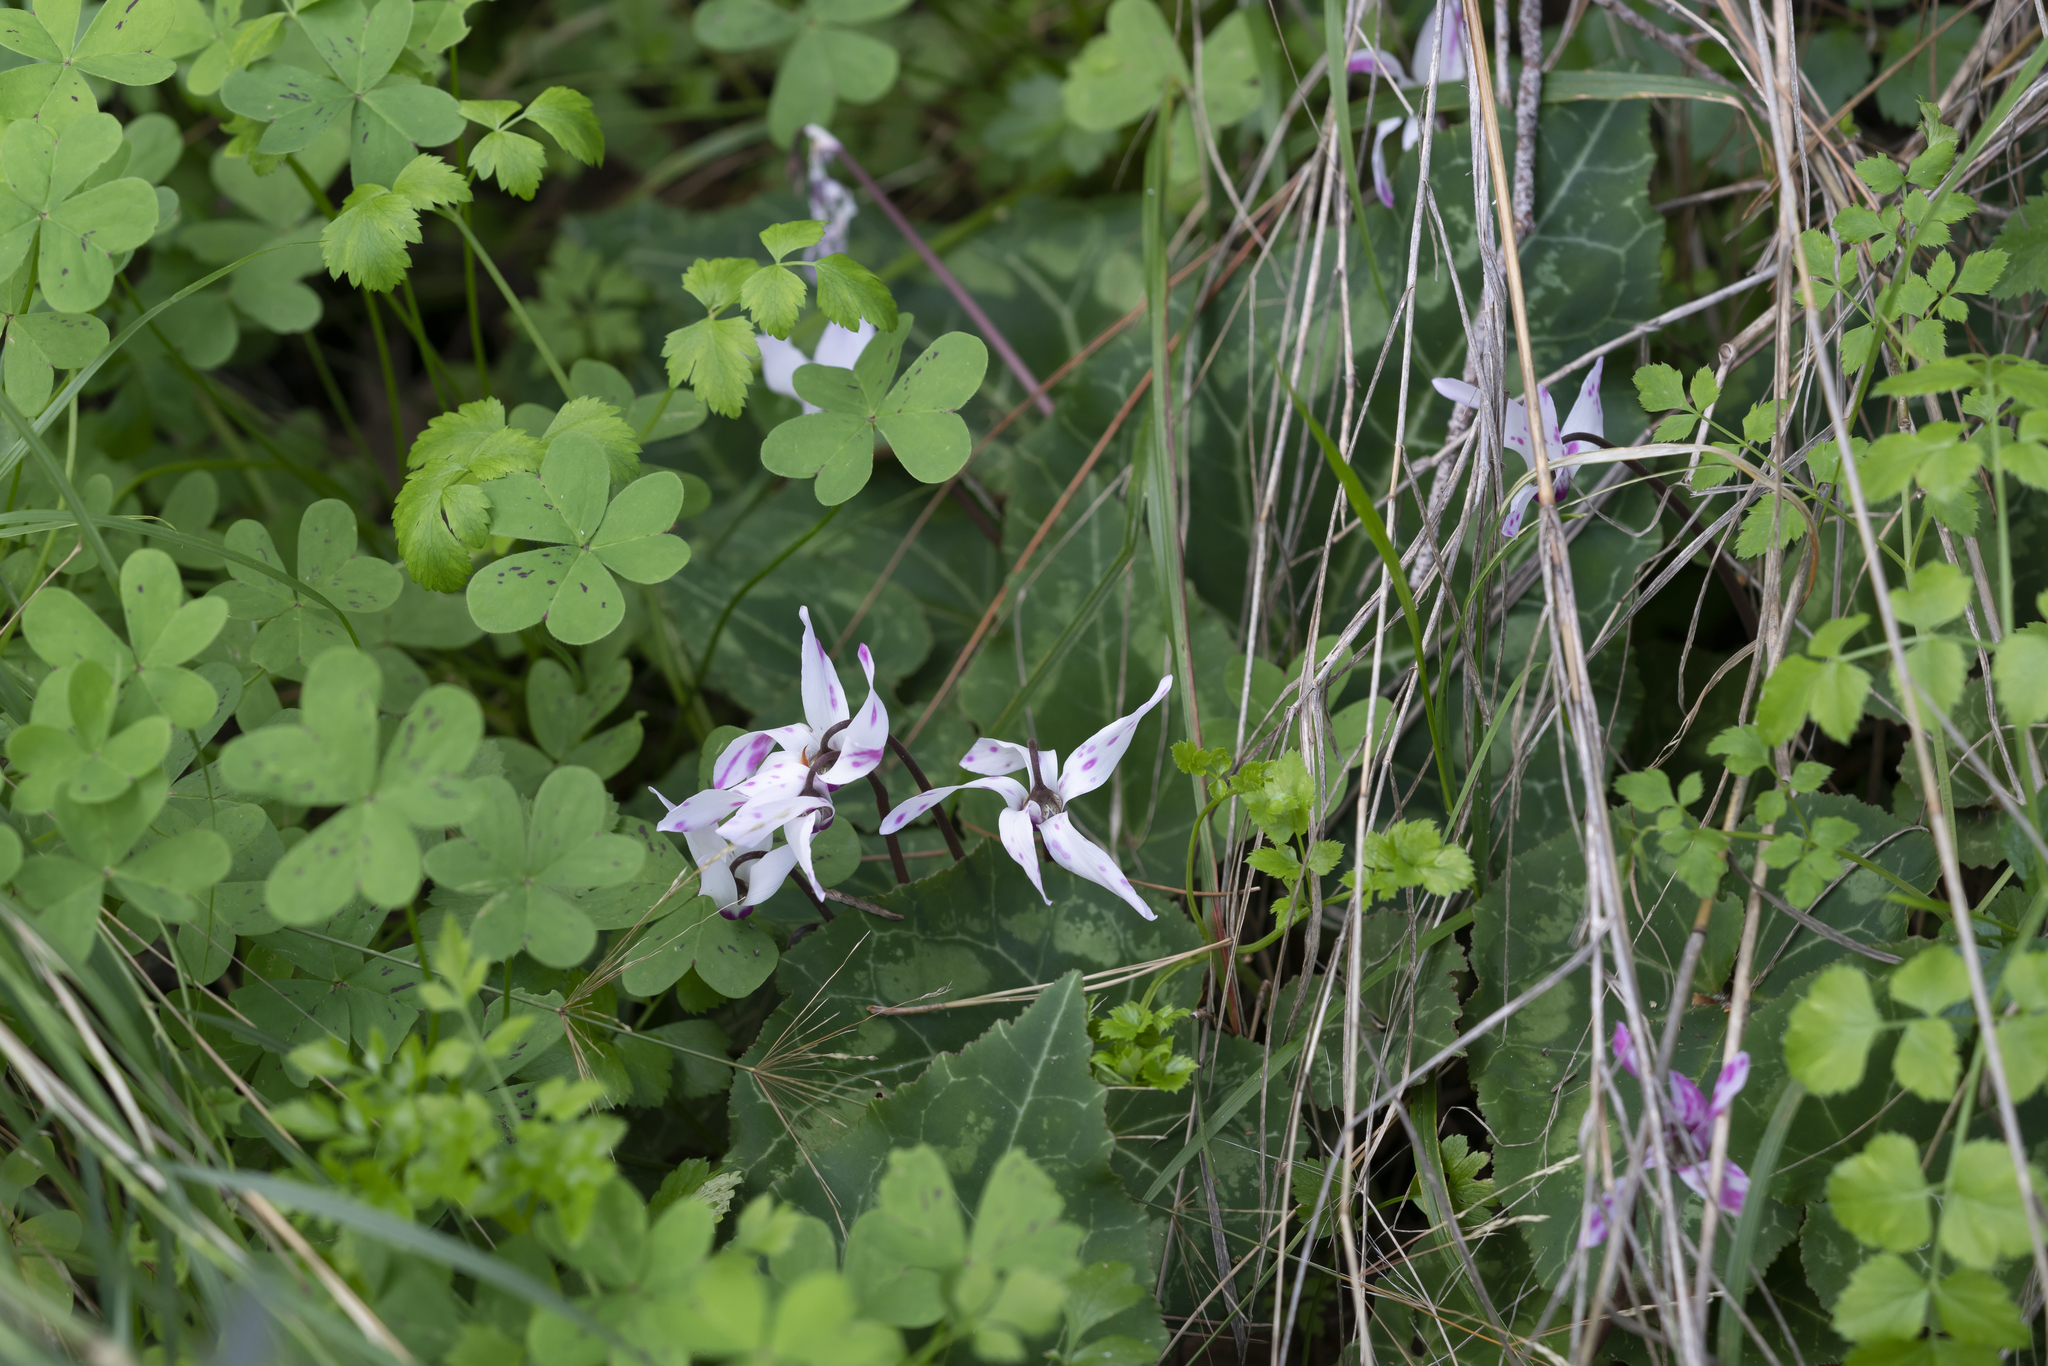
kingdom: Plantae
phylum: Tracheophyta
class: Magnoliopsida
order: Ericales
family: Primulaceae
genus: Cyclamen
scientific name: Cyclamen persicum
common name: Florist's cyclamen
